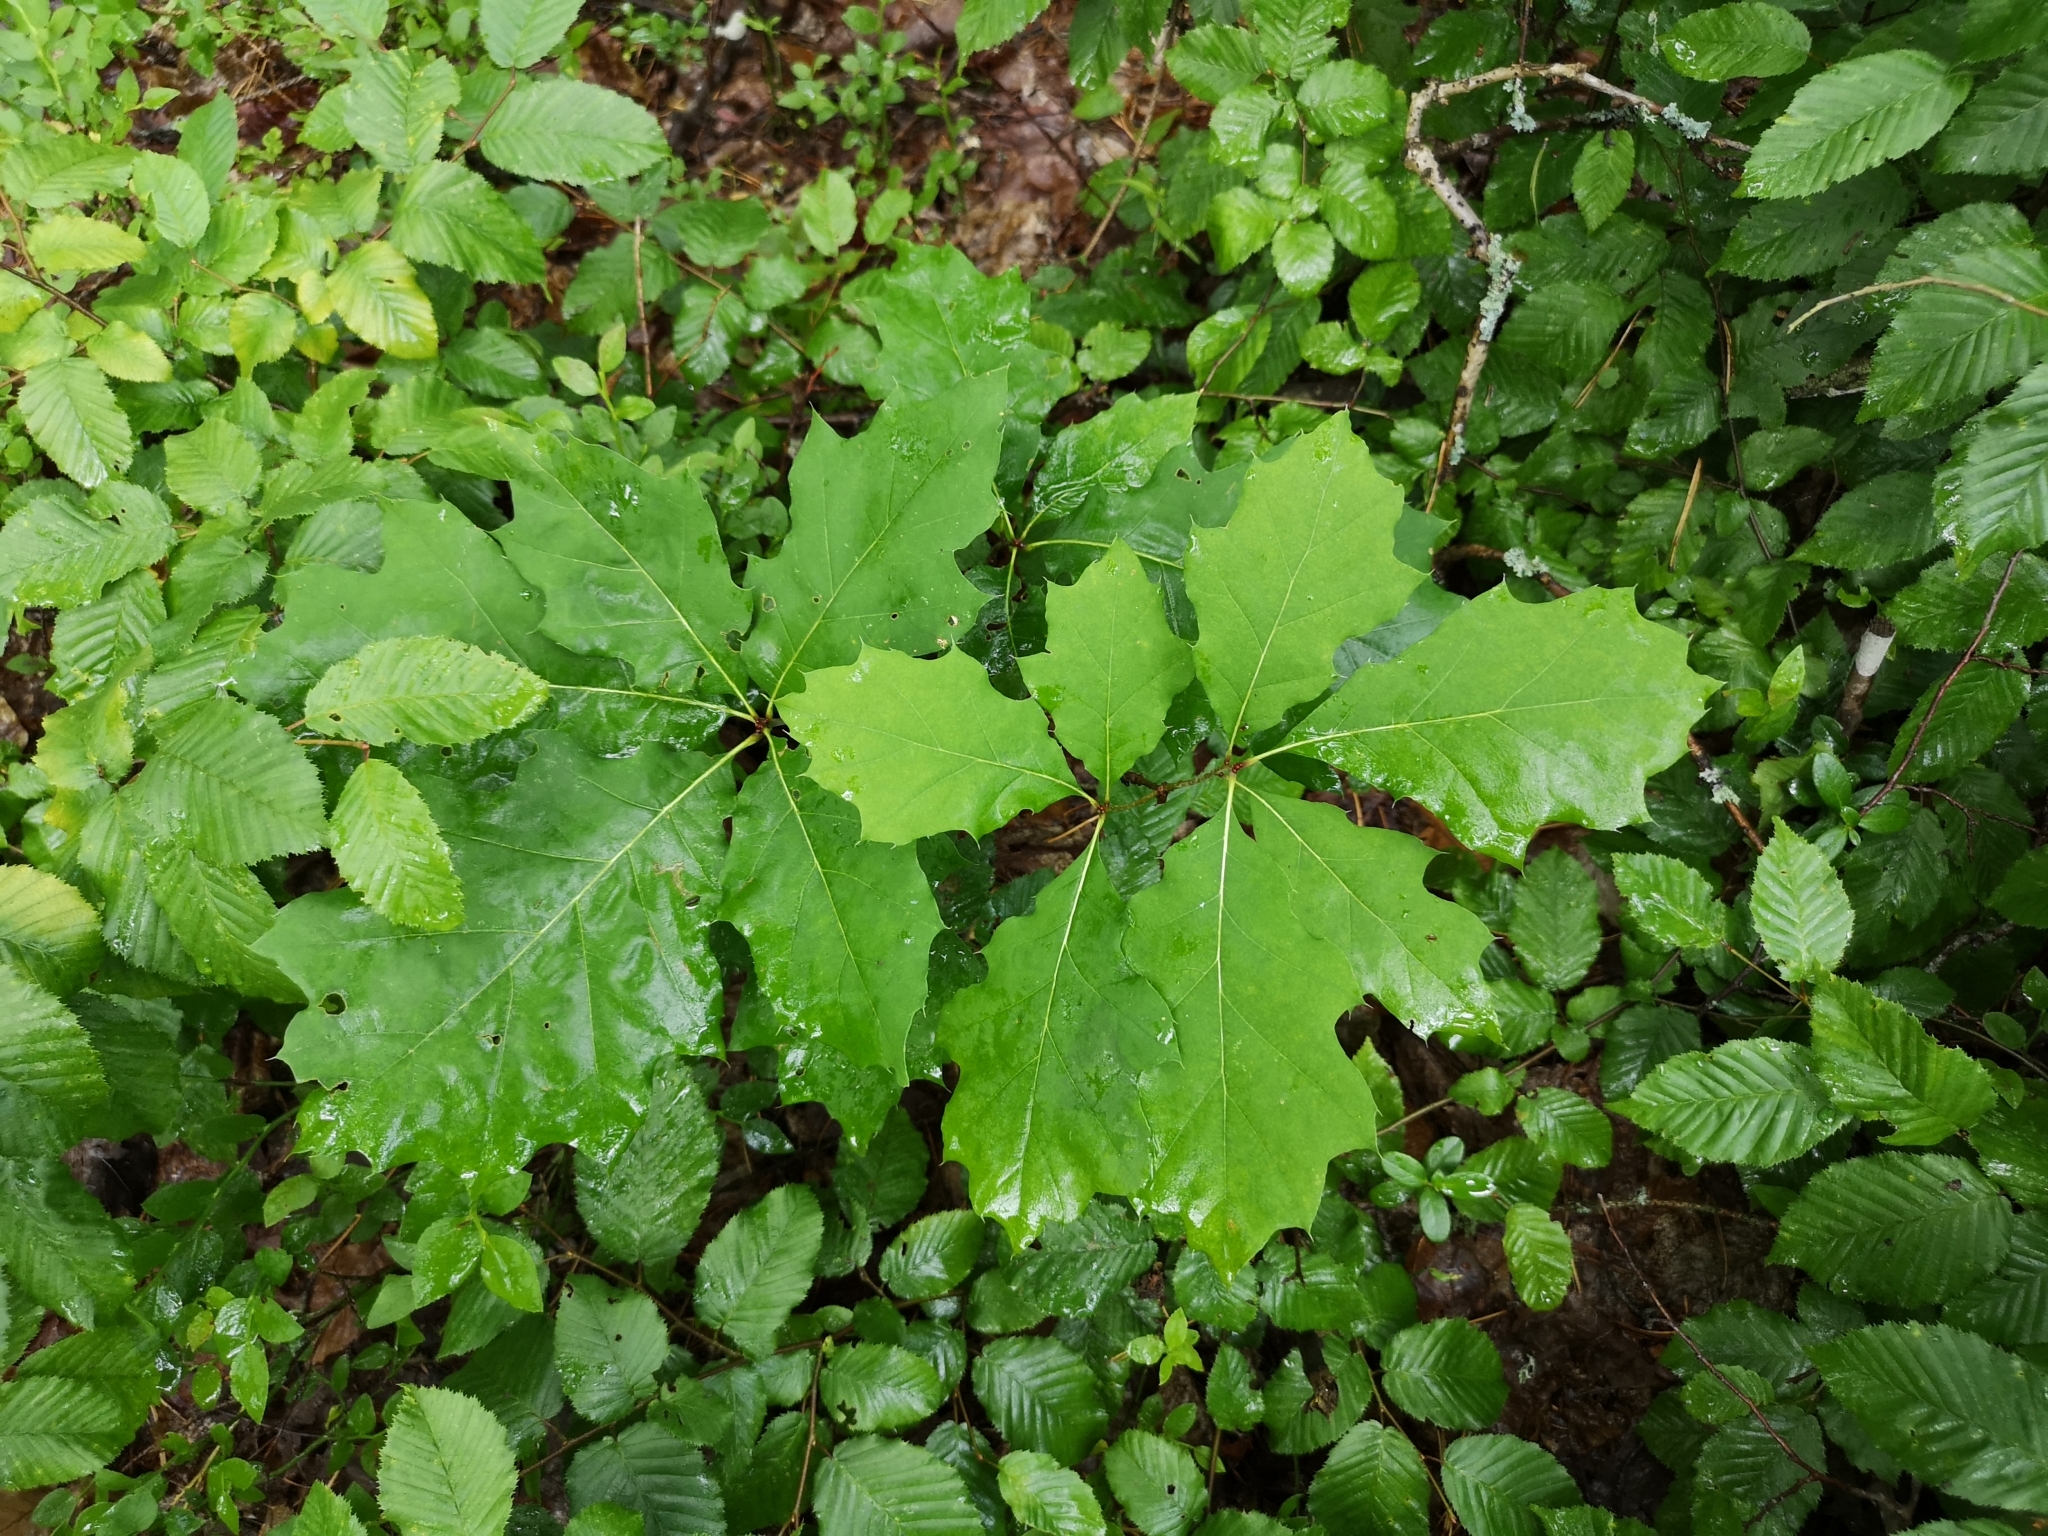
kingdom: Plantae
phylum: Tracheophyta
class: Magnoliopsida
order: Fagales
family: Fagaceae
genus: Quercus
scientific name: Quercus rubra
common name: Red oak
